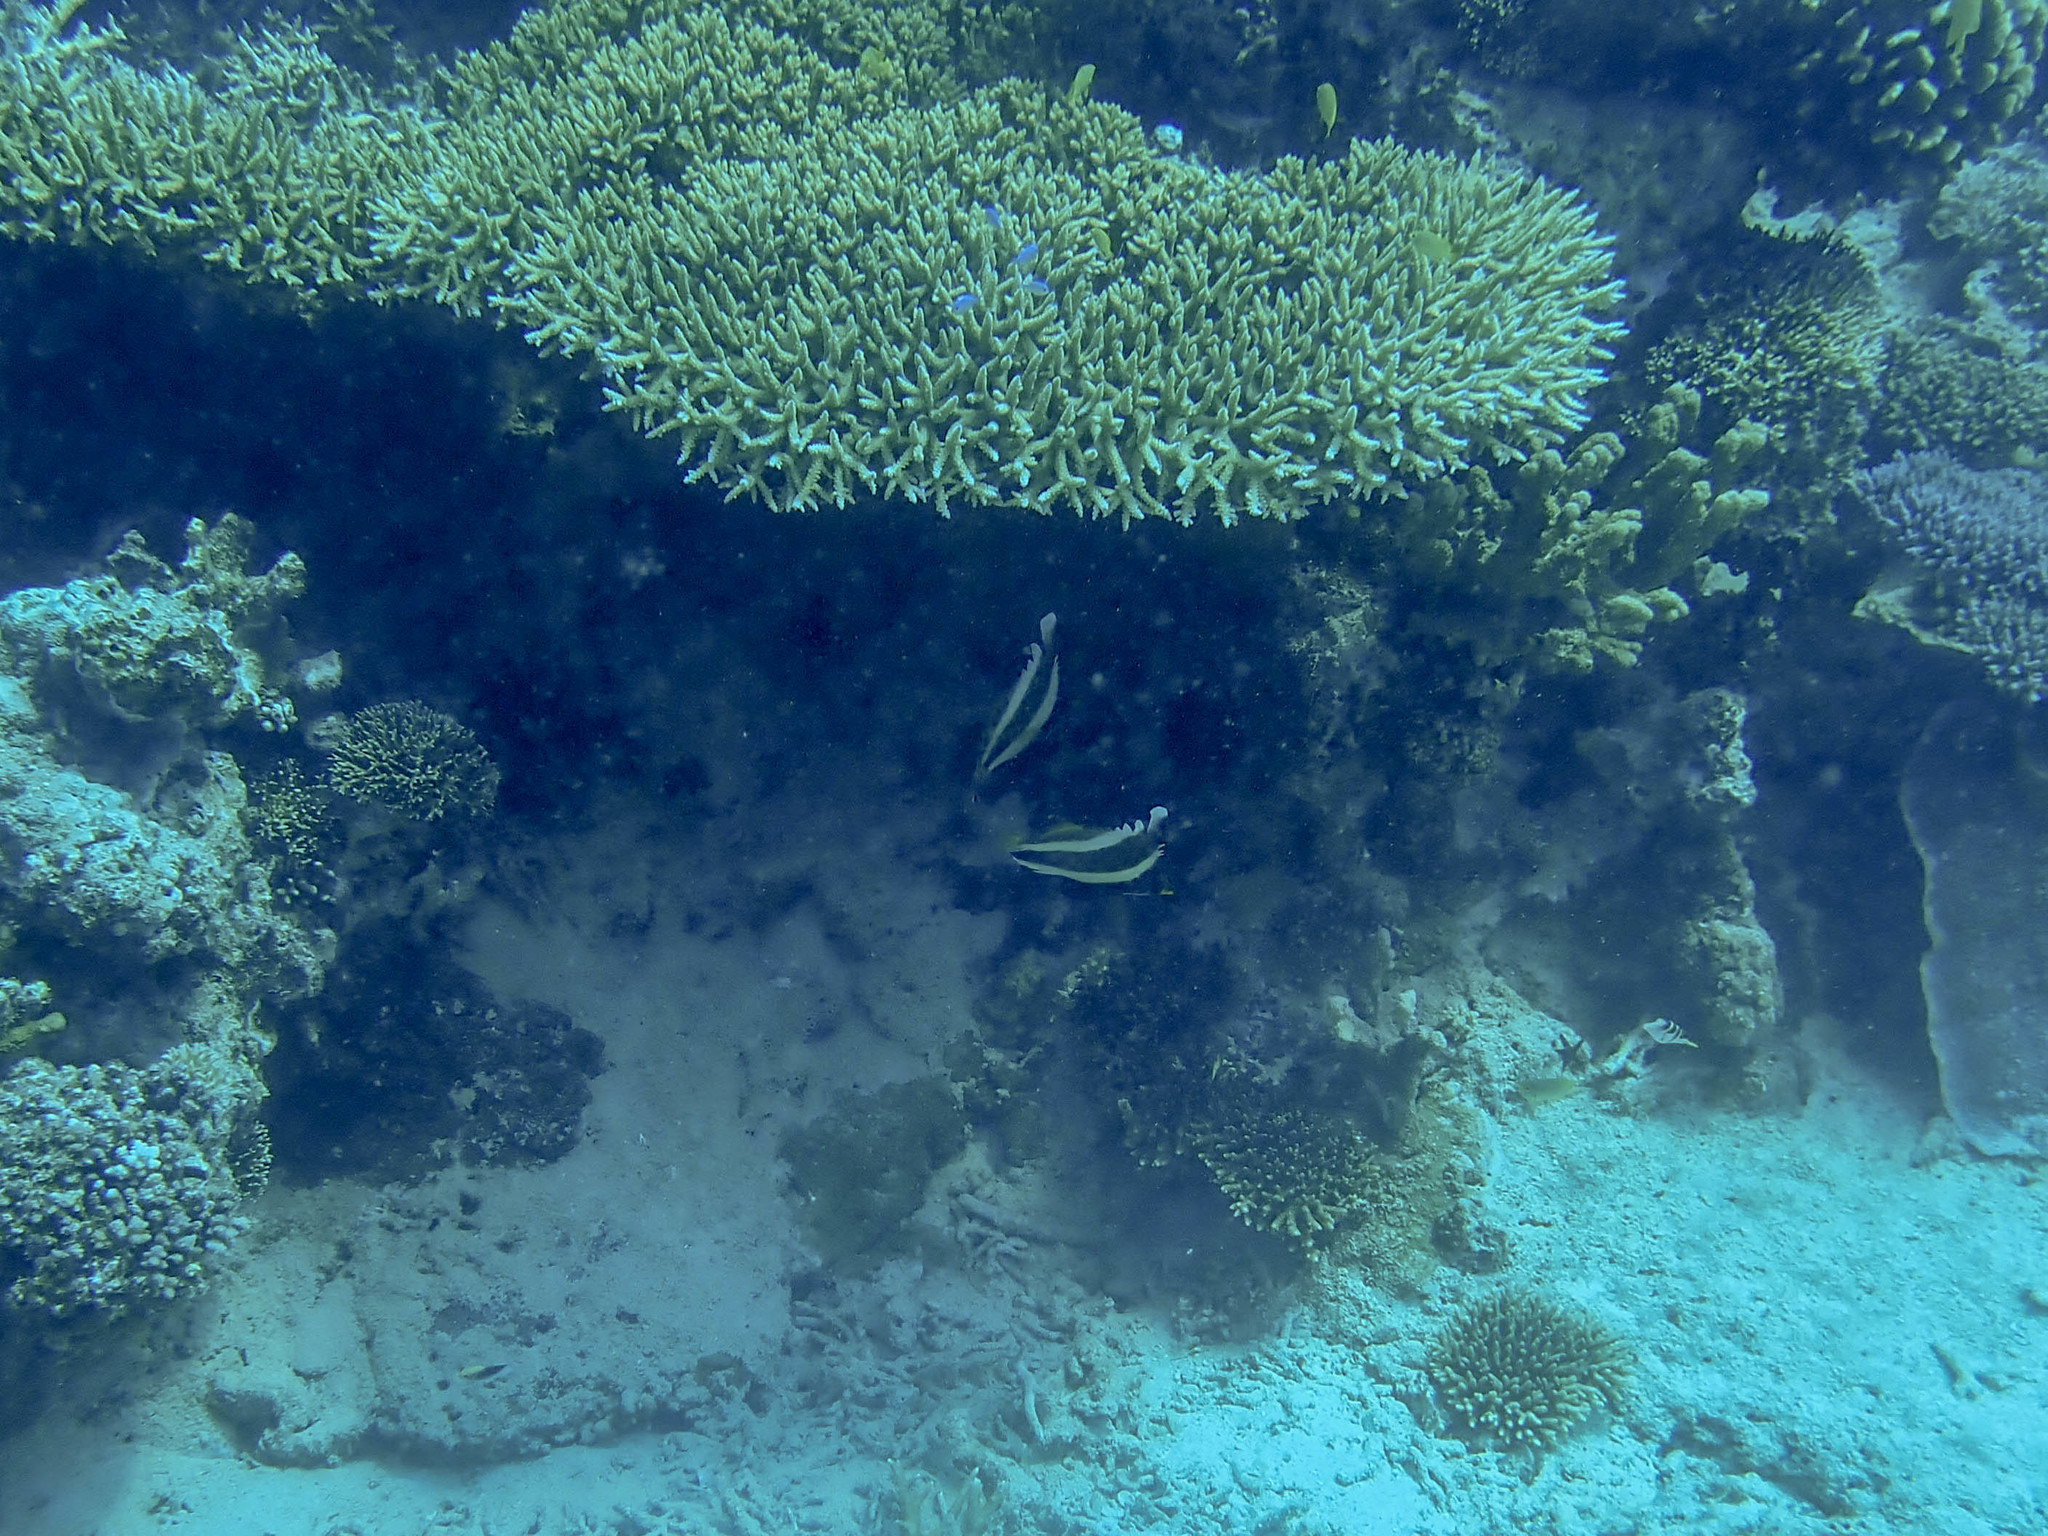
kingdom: Animalia
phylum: Chordata
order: Perciformes
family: Chaetodontidae
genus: Heniochus
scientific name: Heniochus chrysostomus
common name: Horned bannerfish
